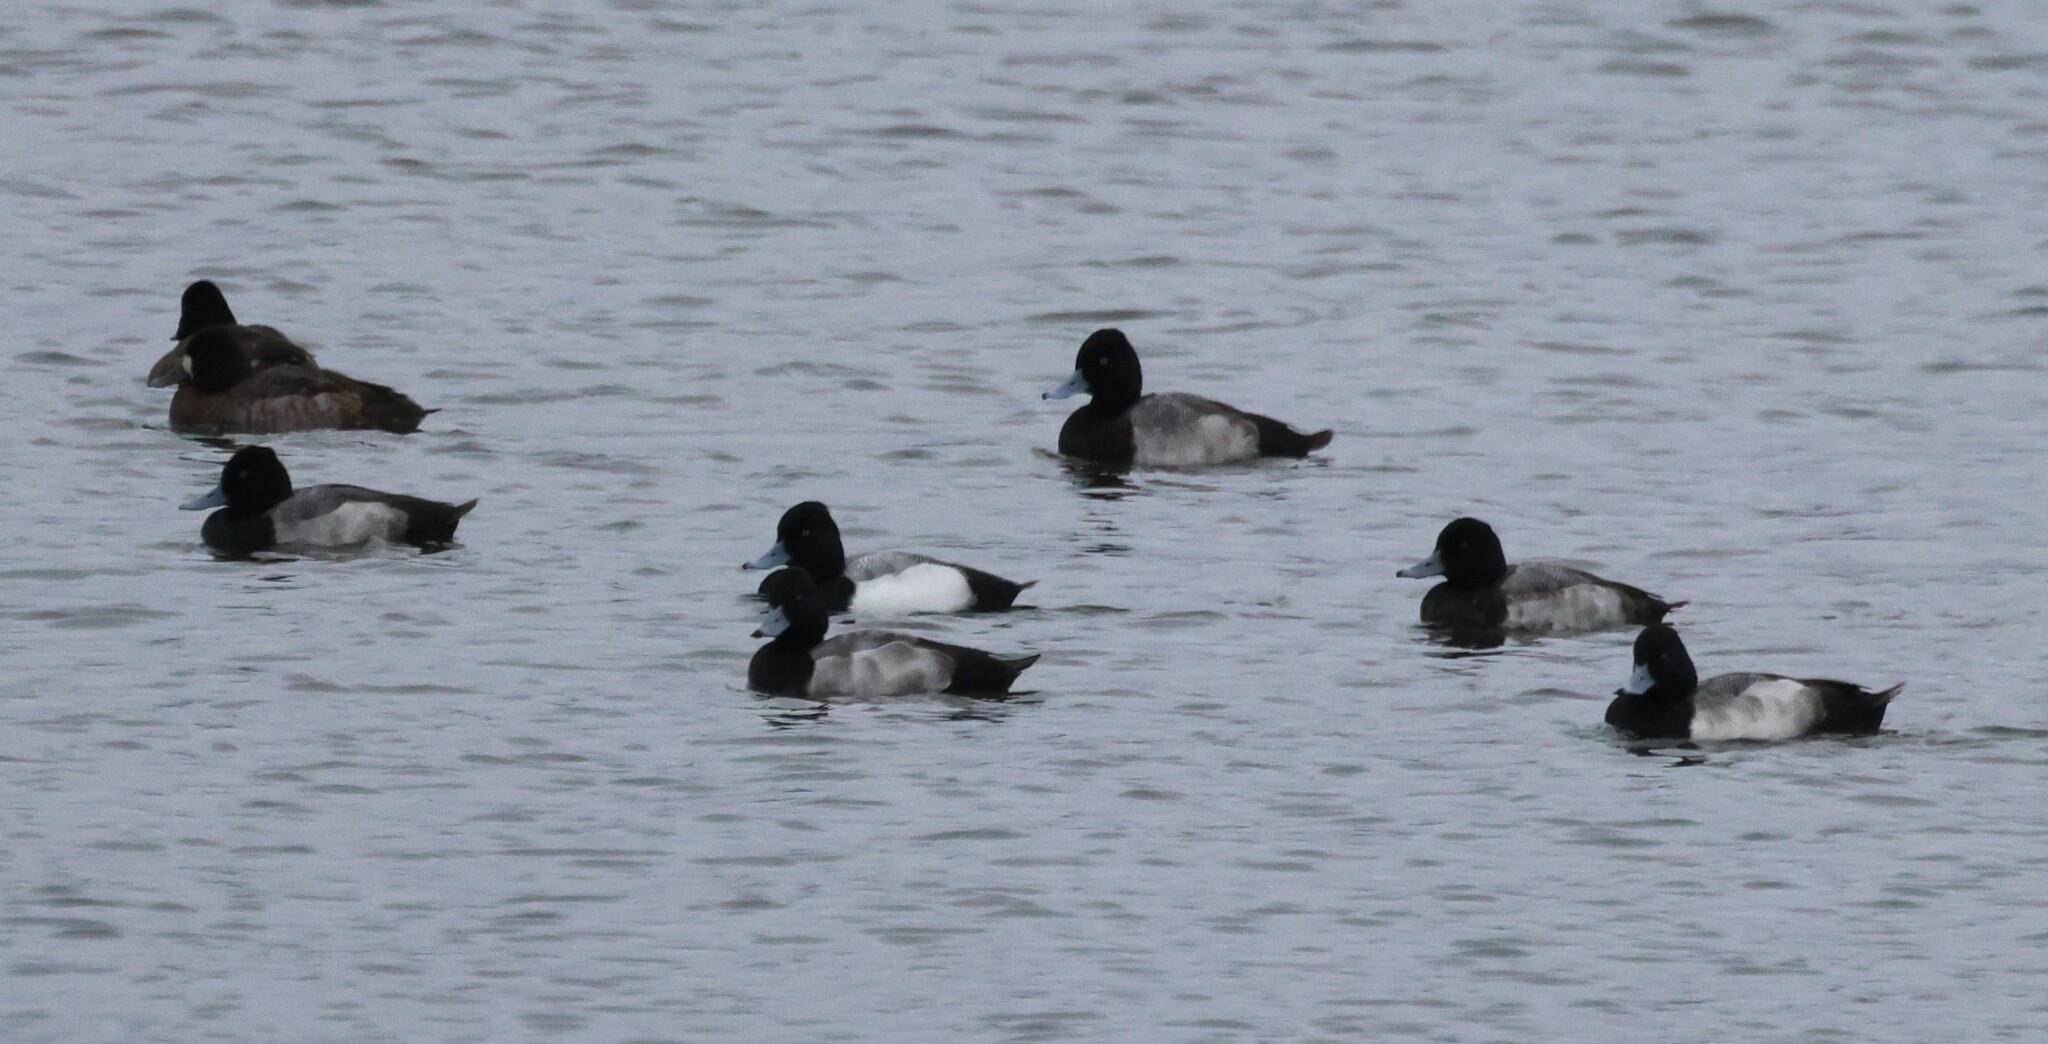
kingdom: Animalia
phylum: Chordata
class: Aves
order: Anseriformes
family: Anatidae
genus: Aythya
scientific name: Aythya affinis
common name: Lesser scaup
